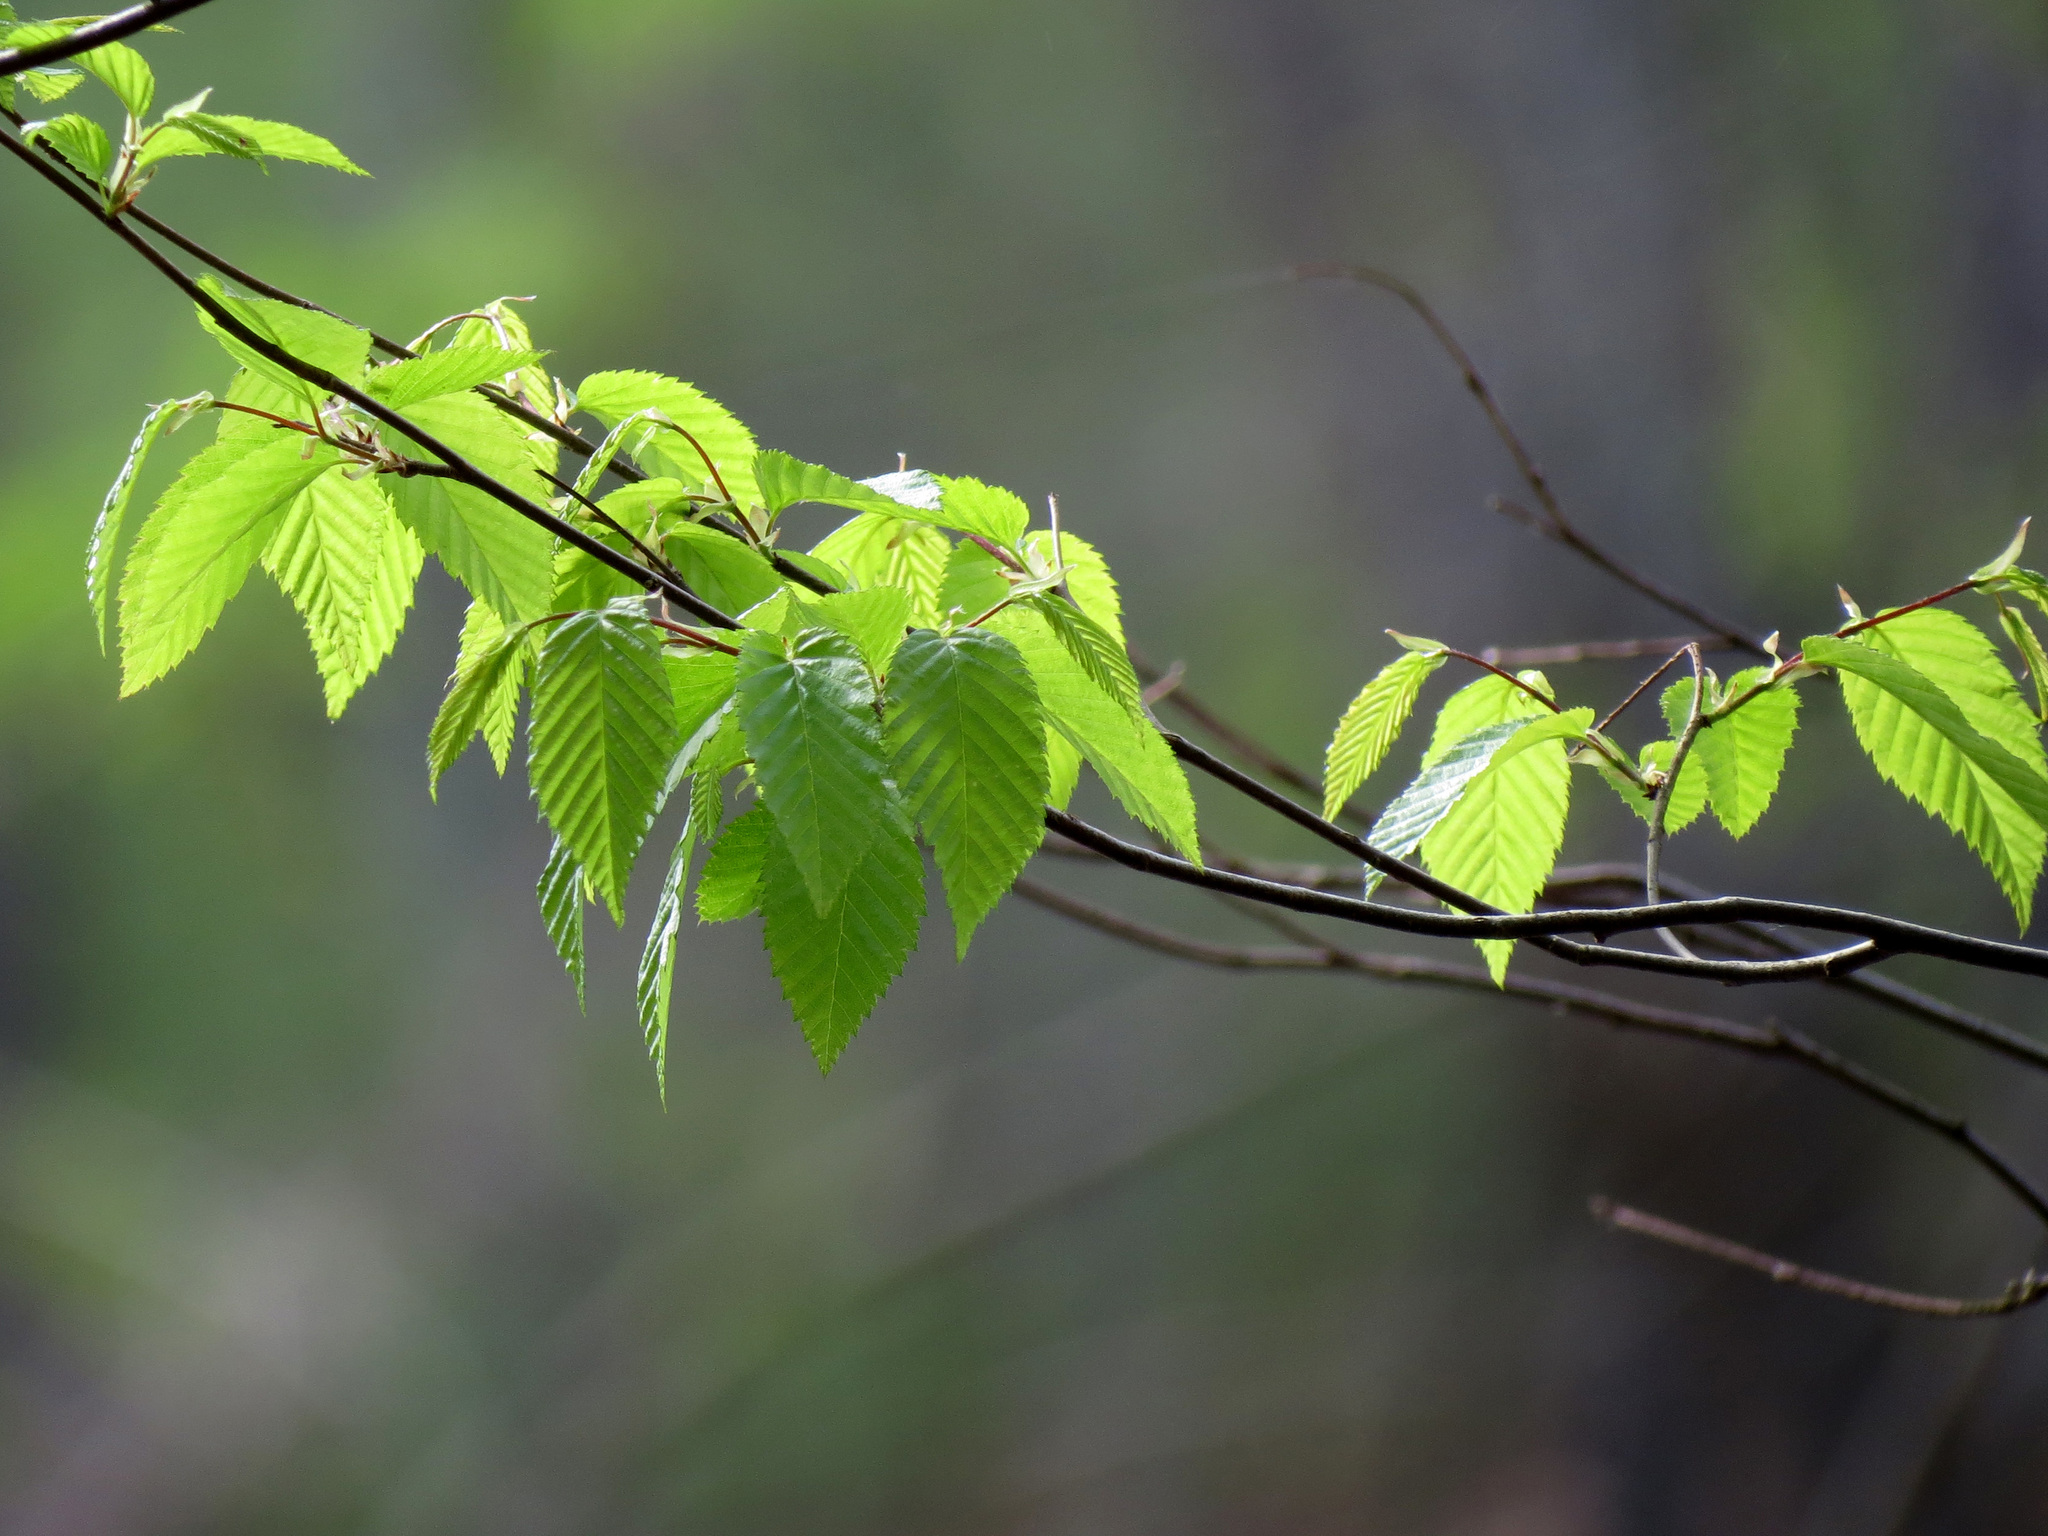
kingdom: Plantae
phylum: Tracheophyta
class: Magnoliopsida
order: Fagales
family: Betulaceae
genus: Carpinus
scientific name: Carpinus caroliniana
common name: American hornbeam
